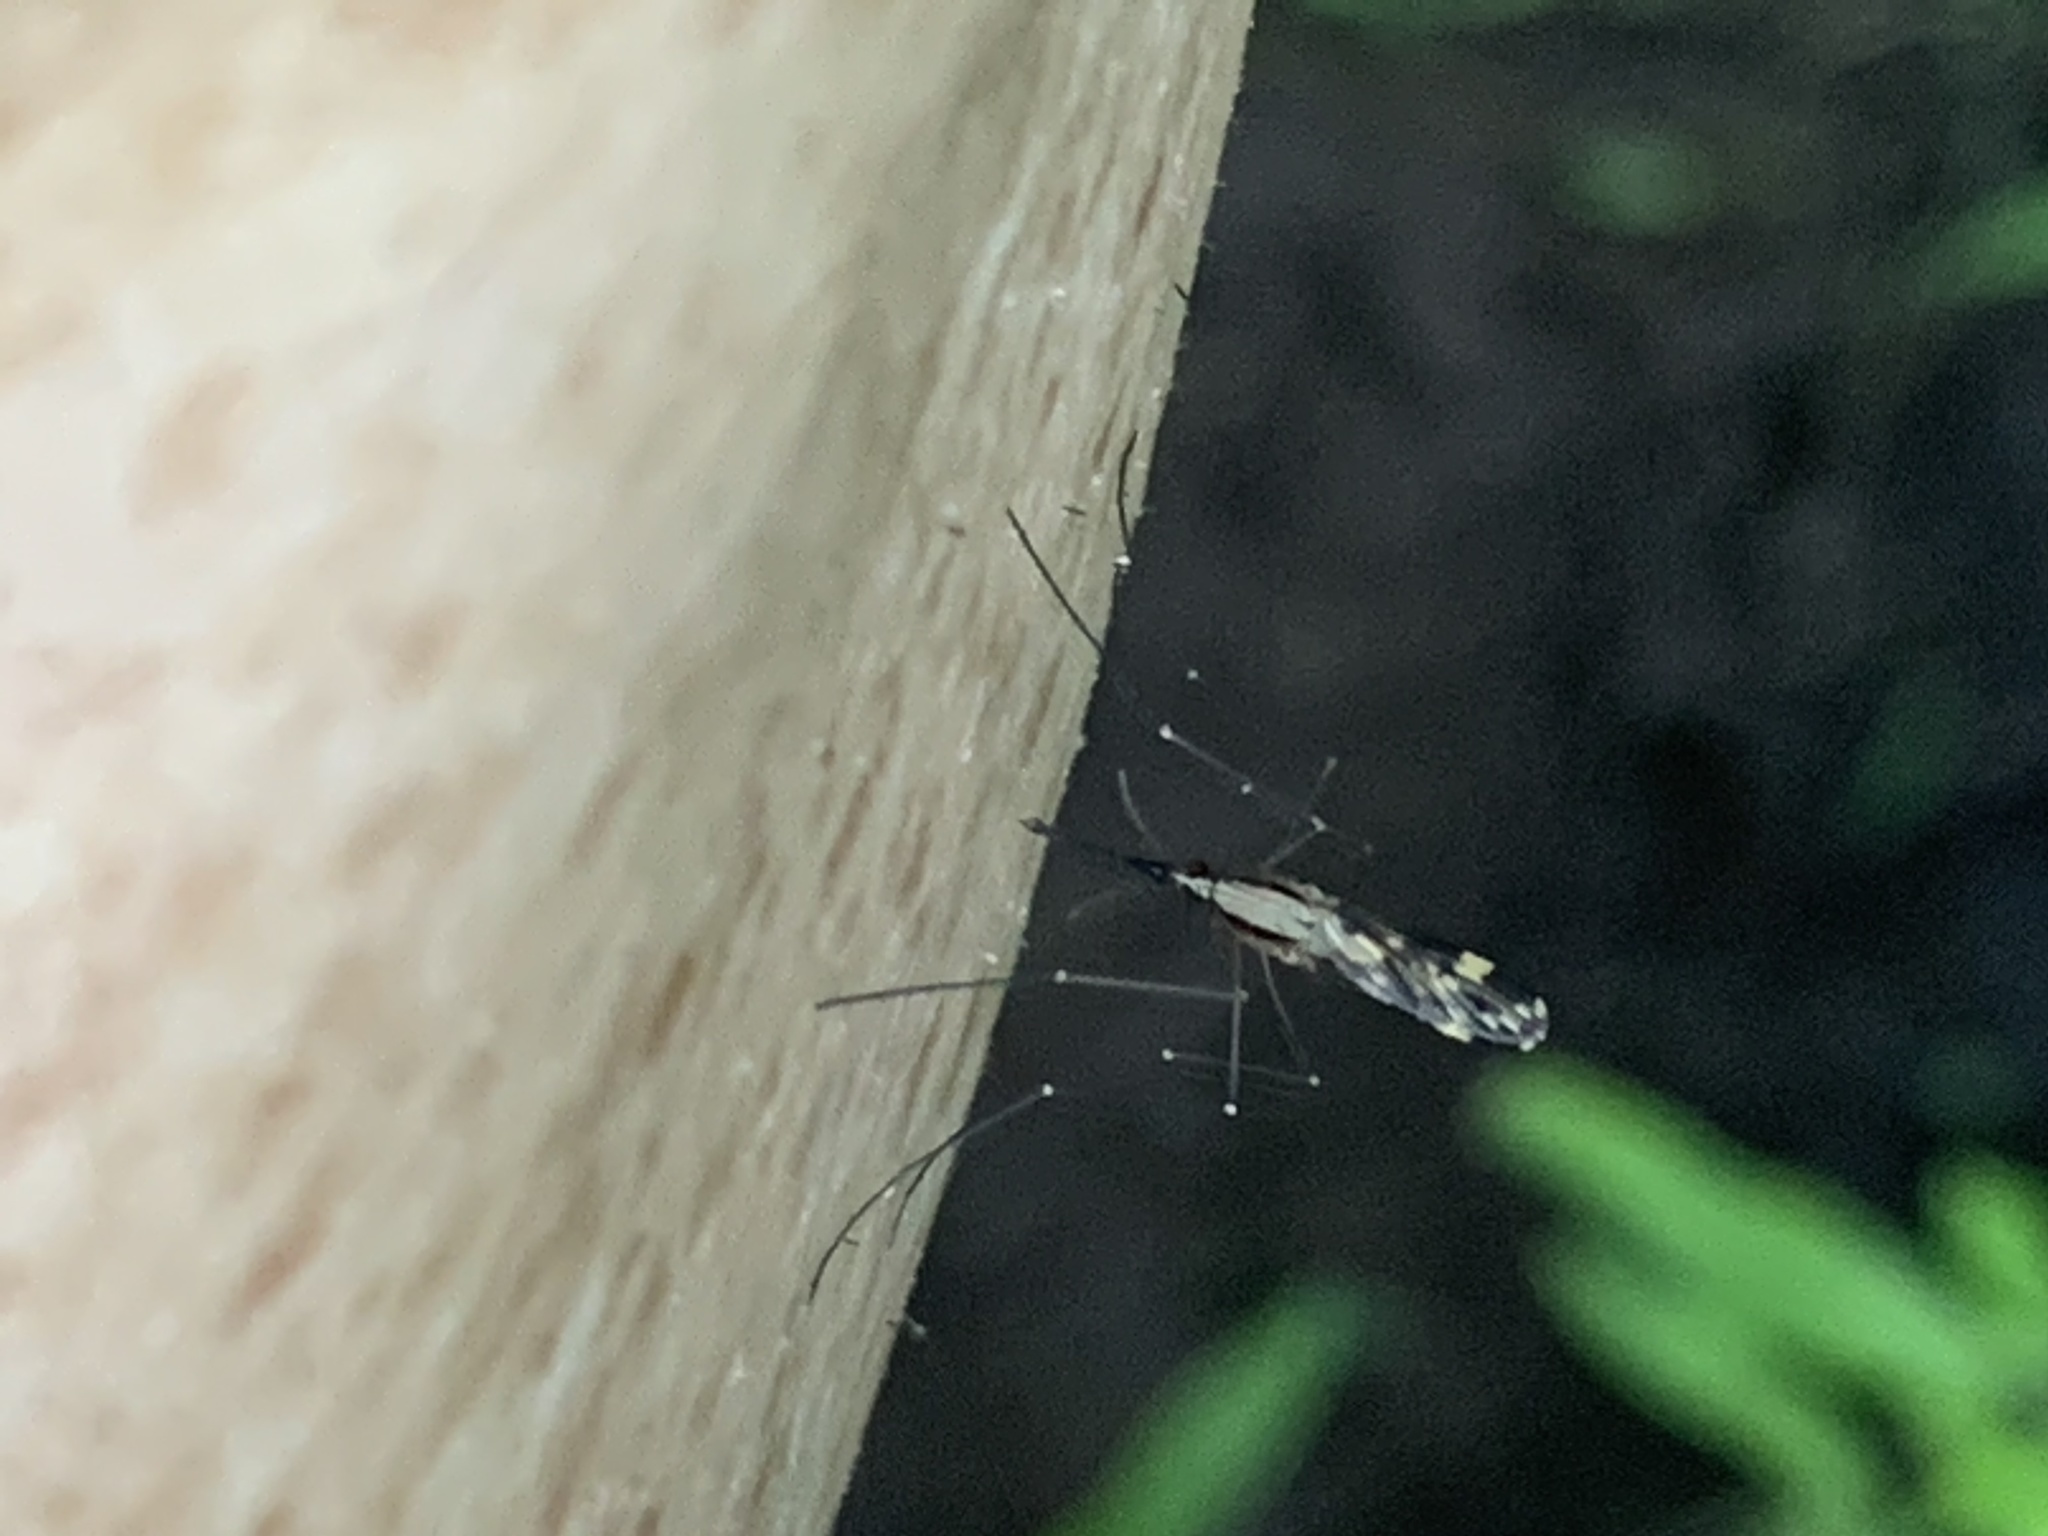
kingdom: Animalia
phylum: Arthropoda
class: Insecta
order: Diptera
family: Culicidae
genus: Anopheles
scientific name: Anopheles punctipennis
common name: Woodland malaria mosquito
